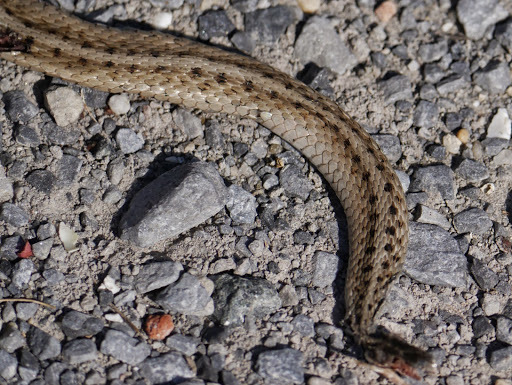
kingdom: Animalia
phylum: Chordata
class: Squamata
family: Colubridae
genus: Storeria
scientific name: Storeria dekayi
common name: (dekay’s) brown snake
